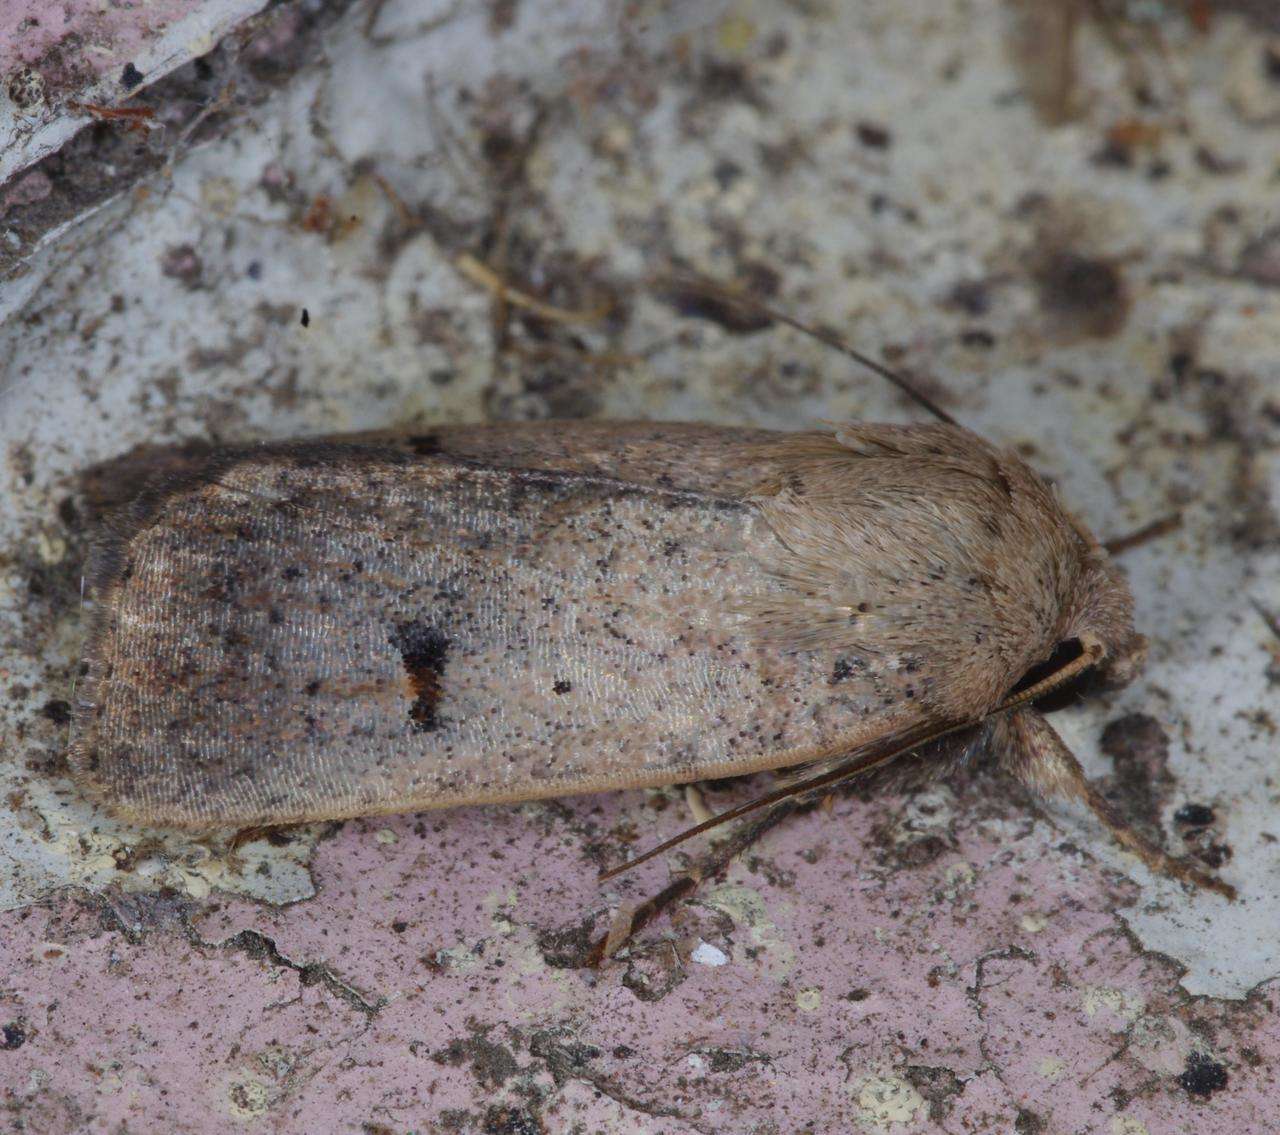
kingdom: Animalia
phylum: Arthropoda
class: Insecta
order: Lepidoptera
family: Noctuidae
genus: Proteuxoa
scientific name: Proteuxoa hypochalchis
